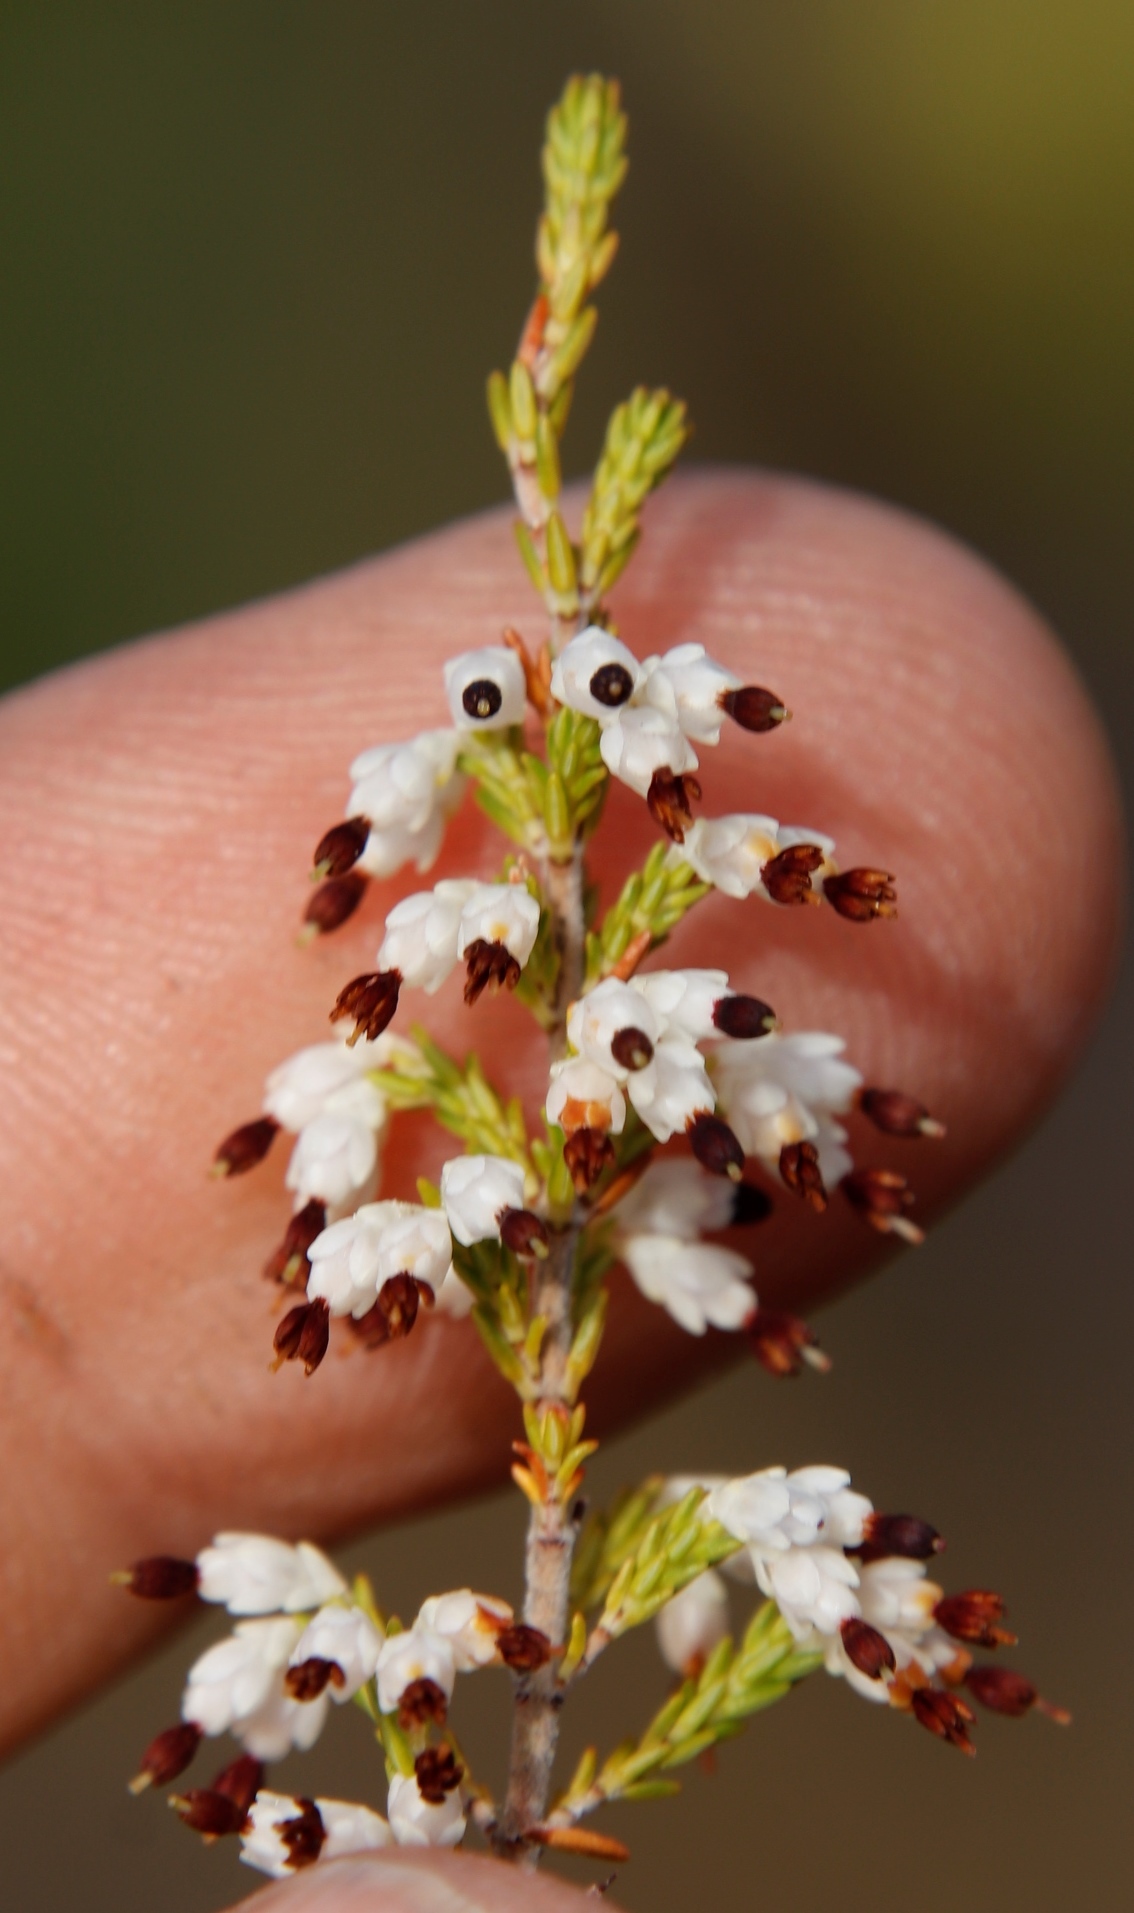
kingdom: Plantae
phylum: Tracheophyta
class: Magnoliopsida
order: Ericales
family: Ericaceae
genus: Erica
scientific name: Erica imbricata
